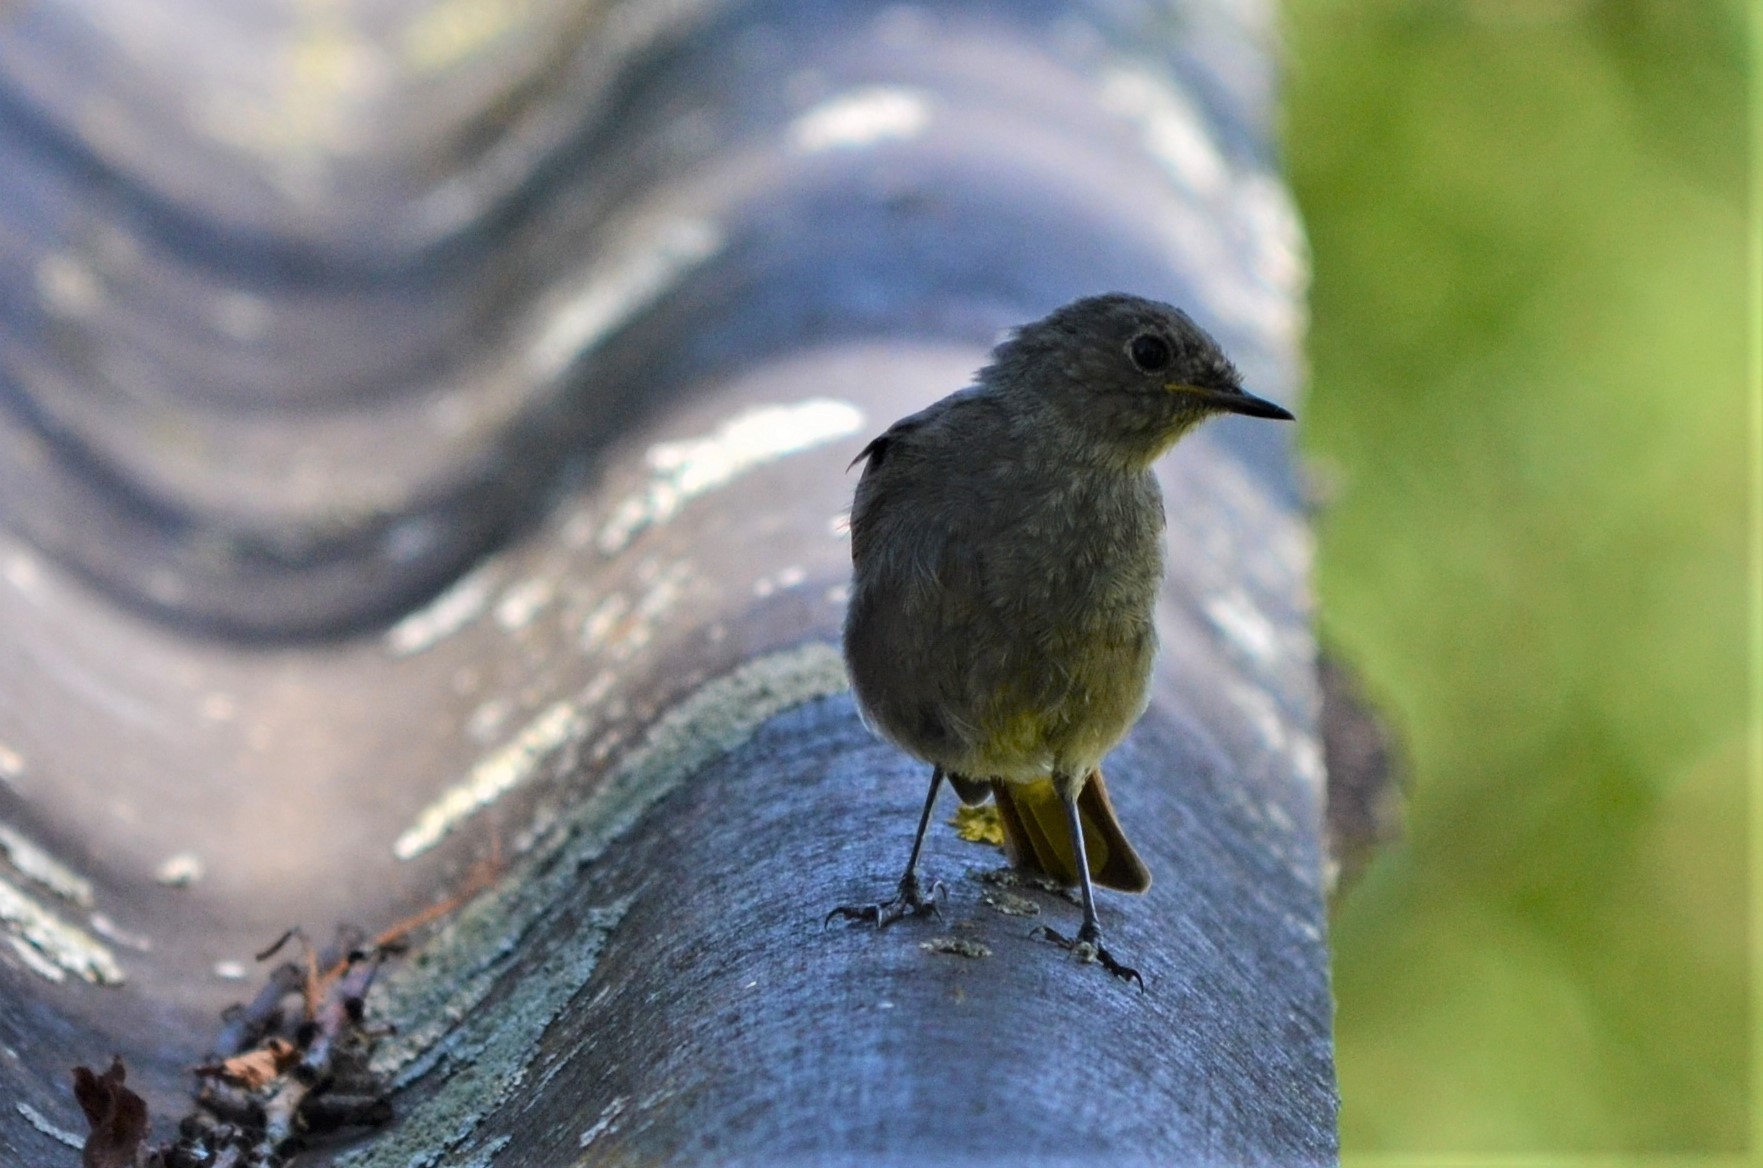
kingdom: Animalia
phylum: Chordata
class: Aves
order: Passeriformes
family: Muscicapidae
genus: Phoenicurus
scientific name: Phoenicurus ochruros
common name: Black redstart
